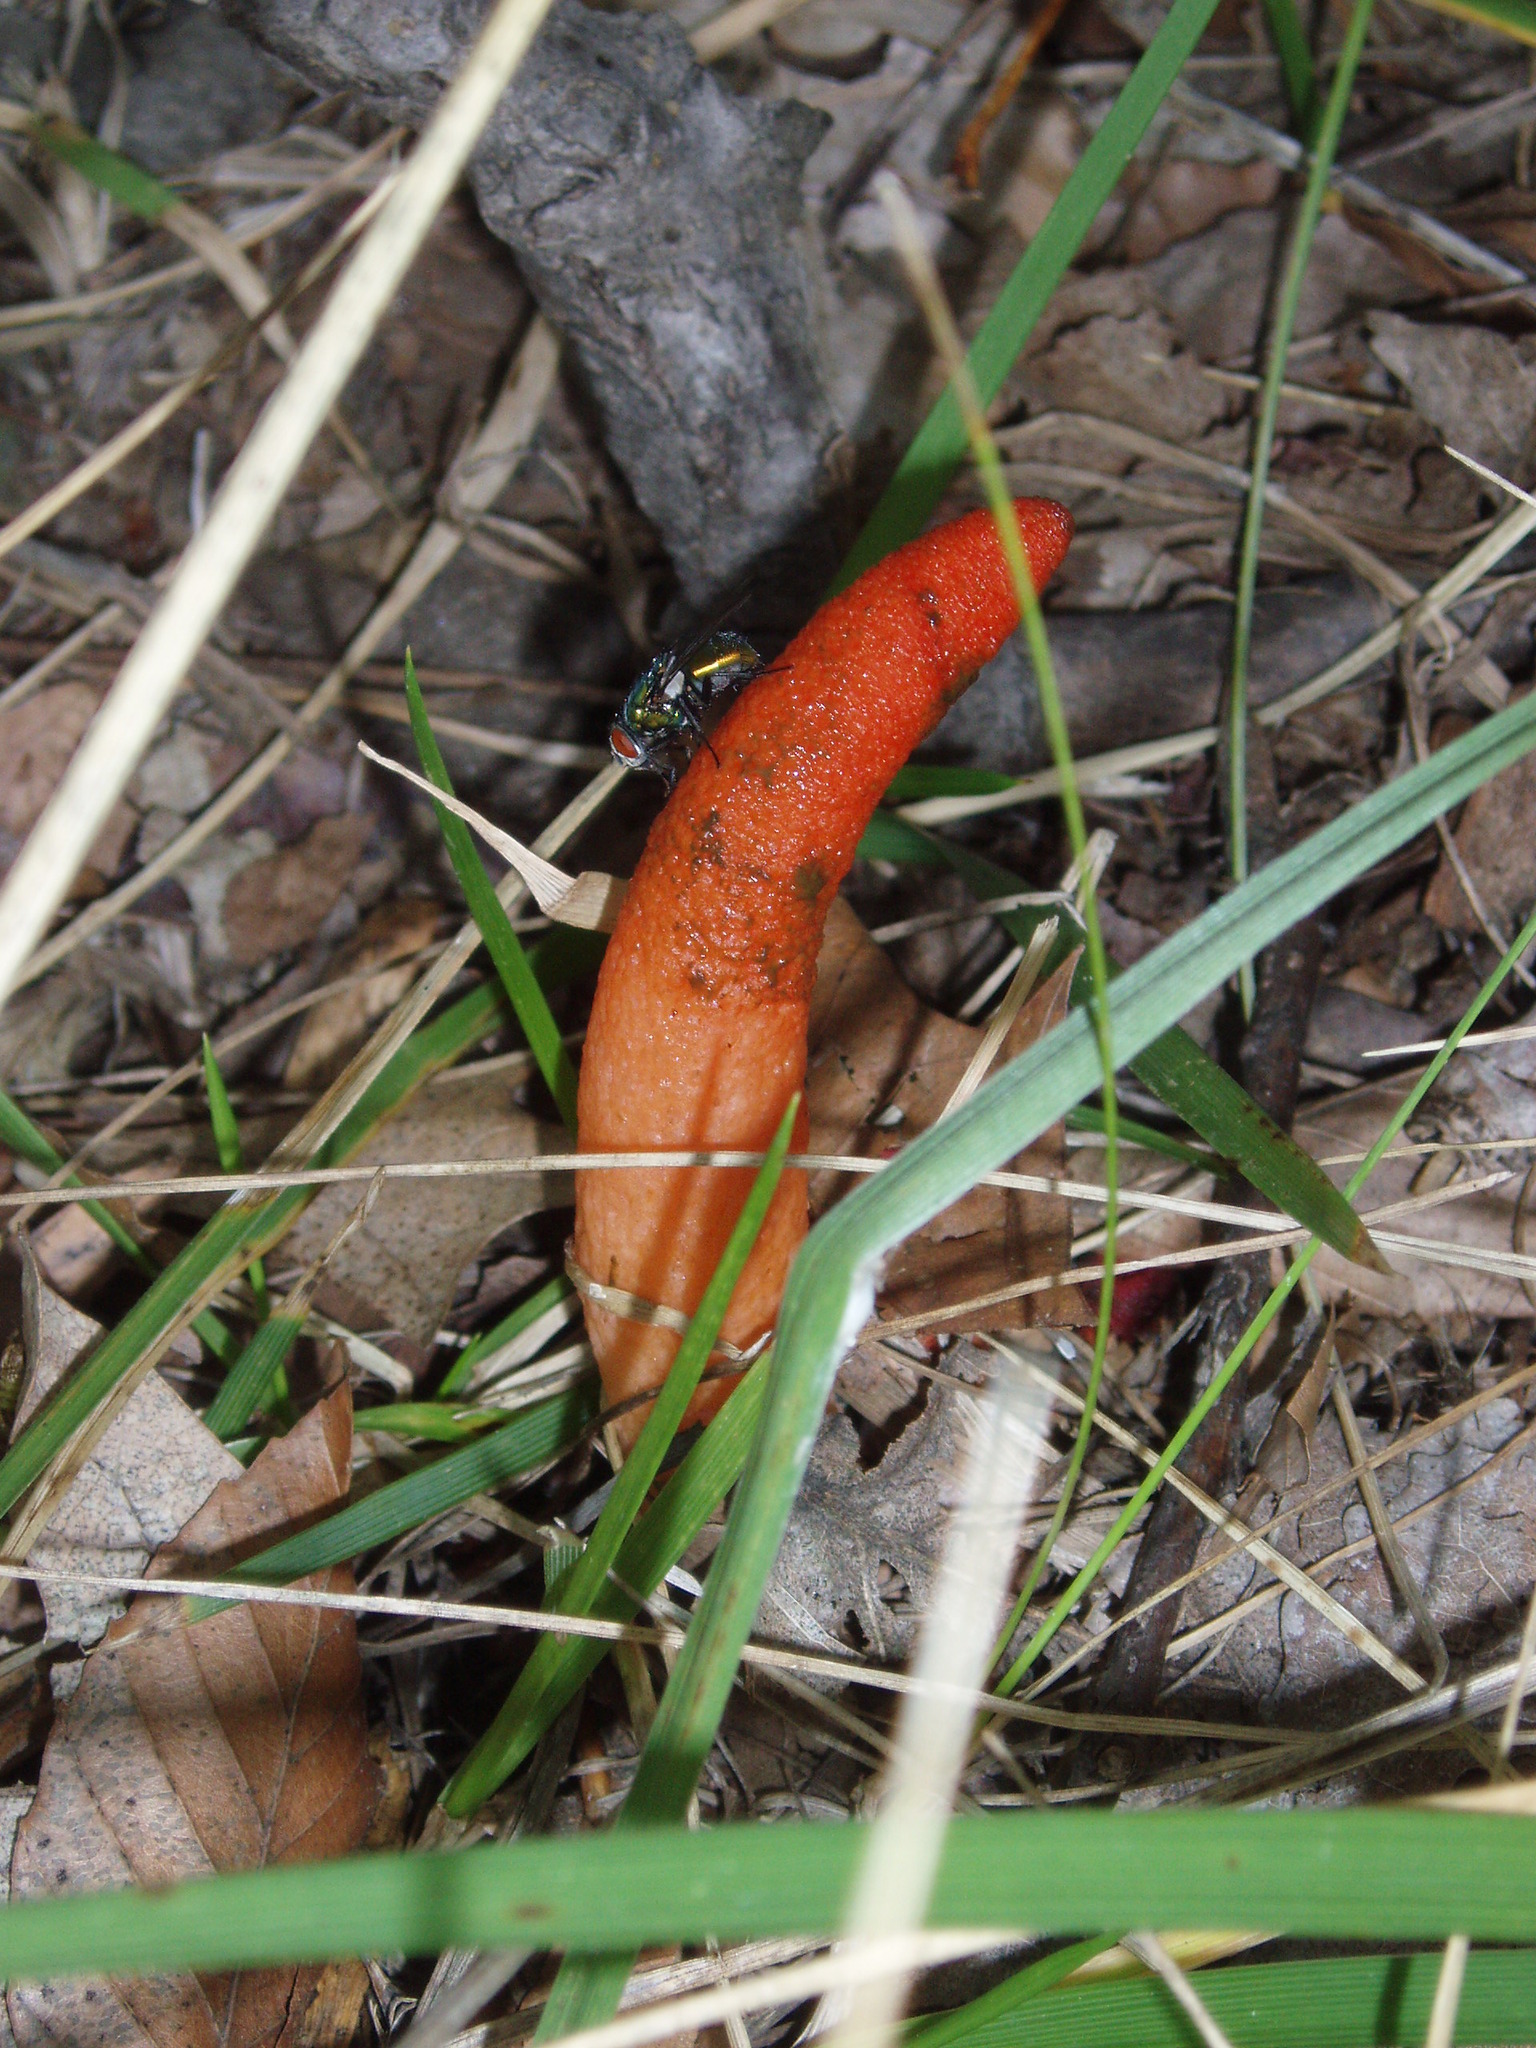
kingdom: Fungi
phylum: Basidiomycota
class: Agaricomycetes
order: Phallales
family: Phallaceae
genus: Mutinus
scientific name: Mutinus elegans
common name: Devil's dipstick
